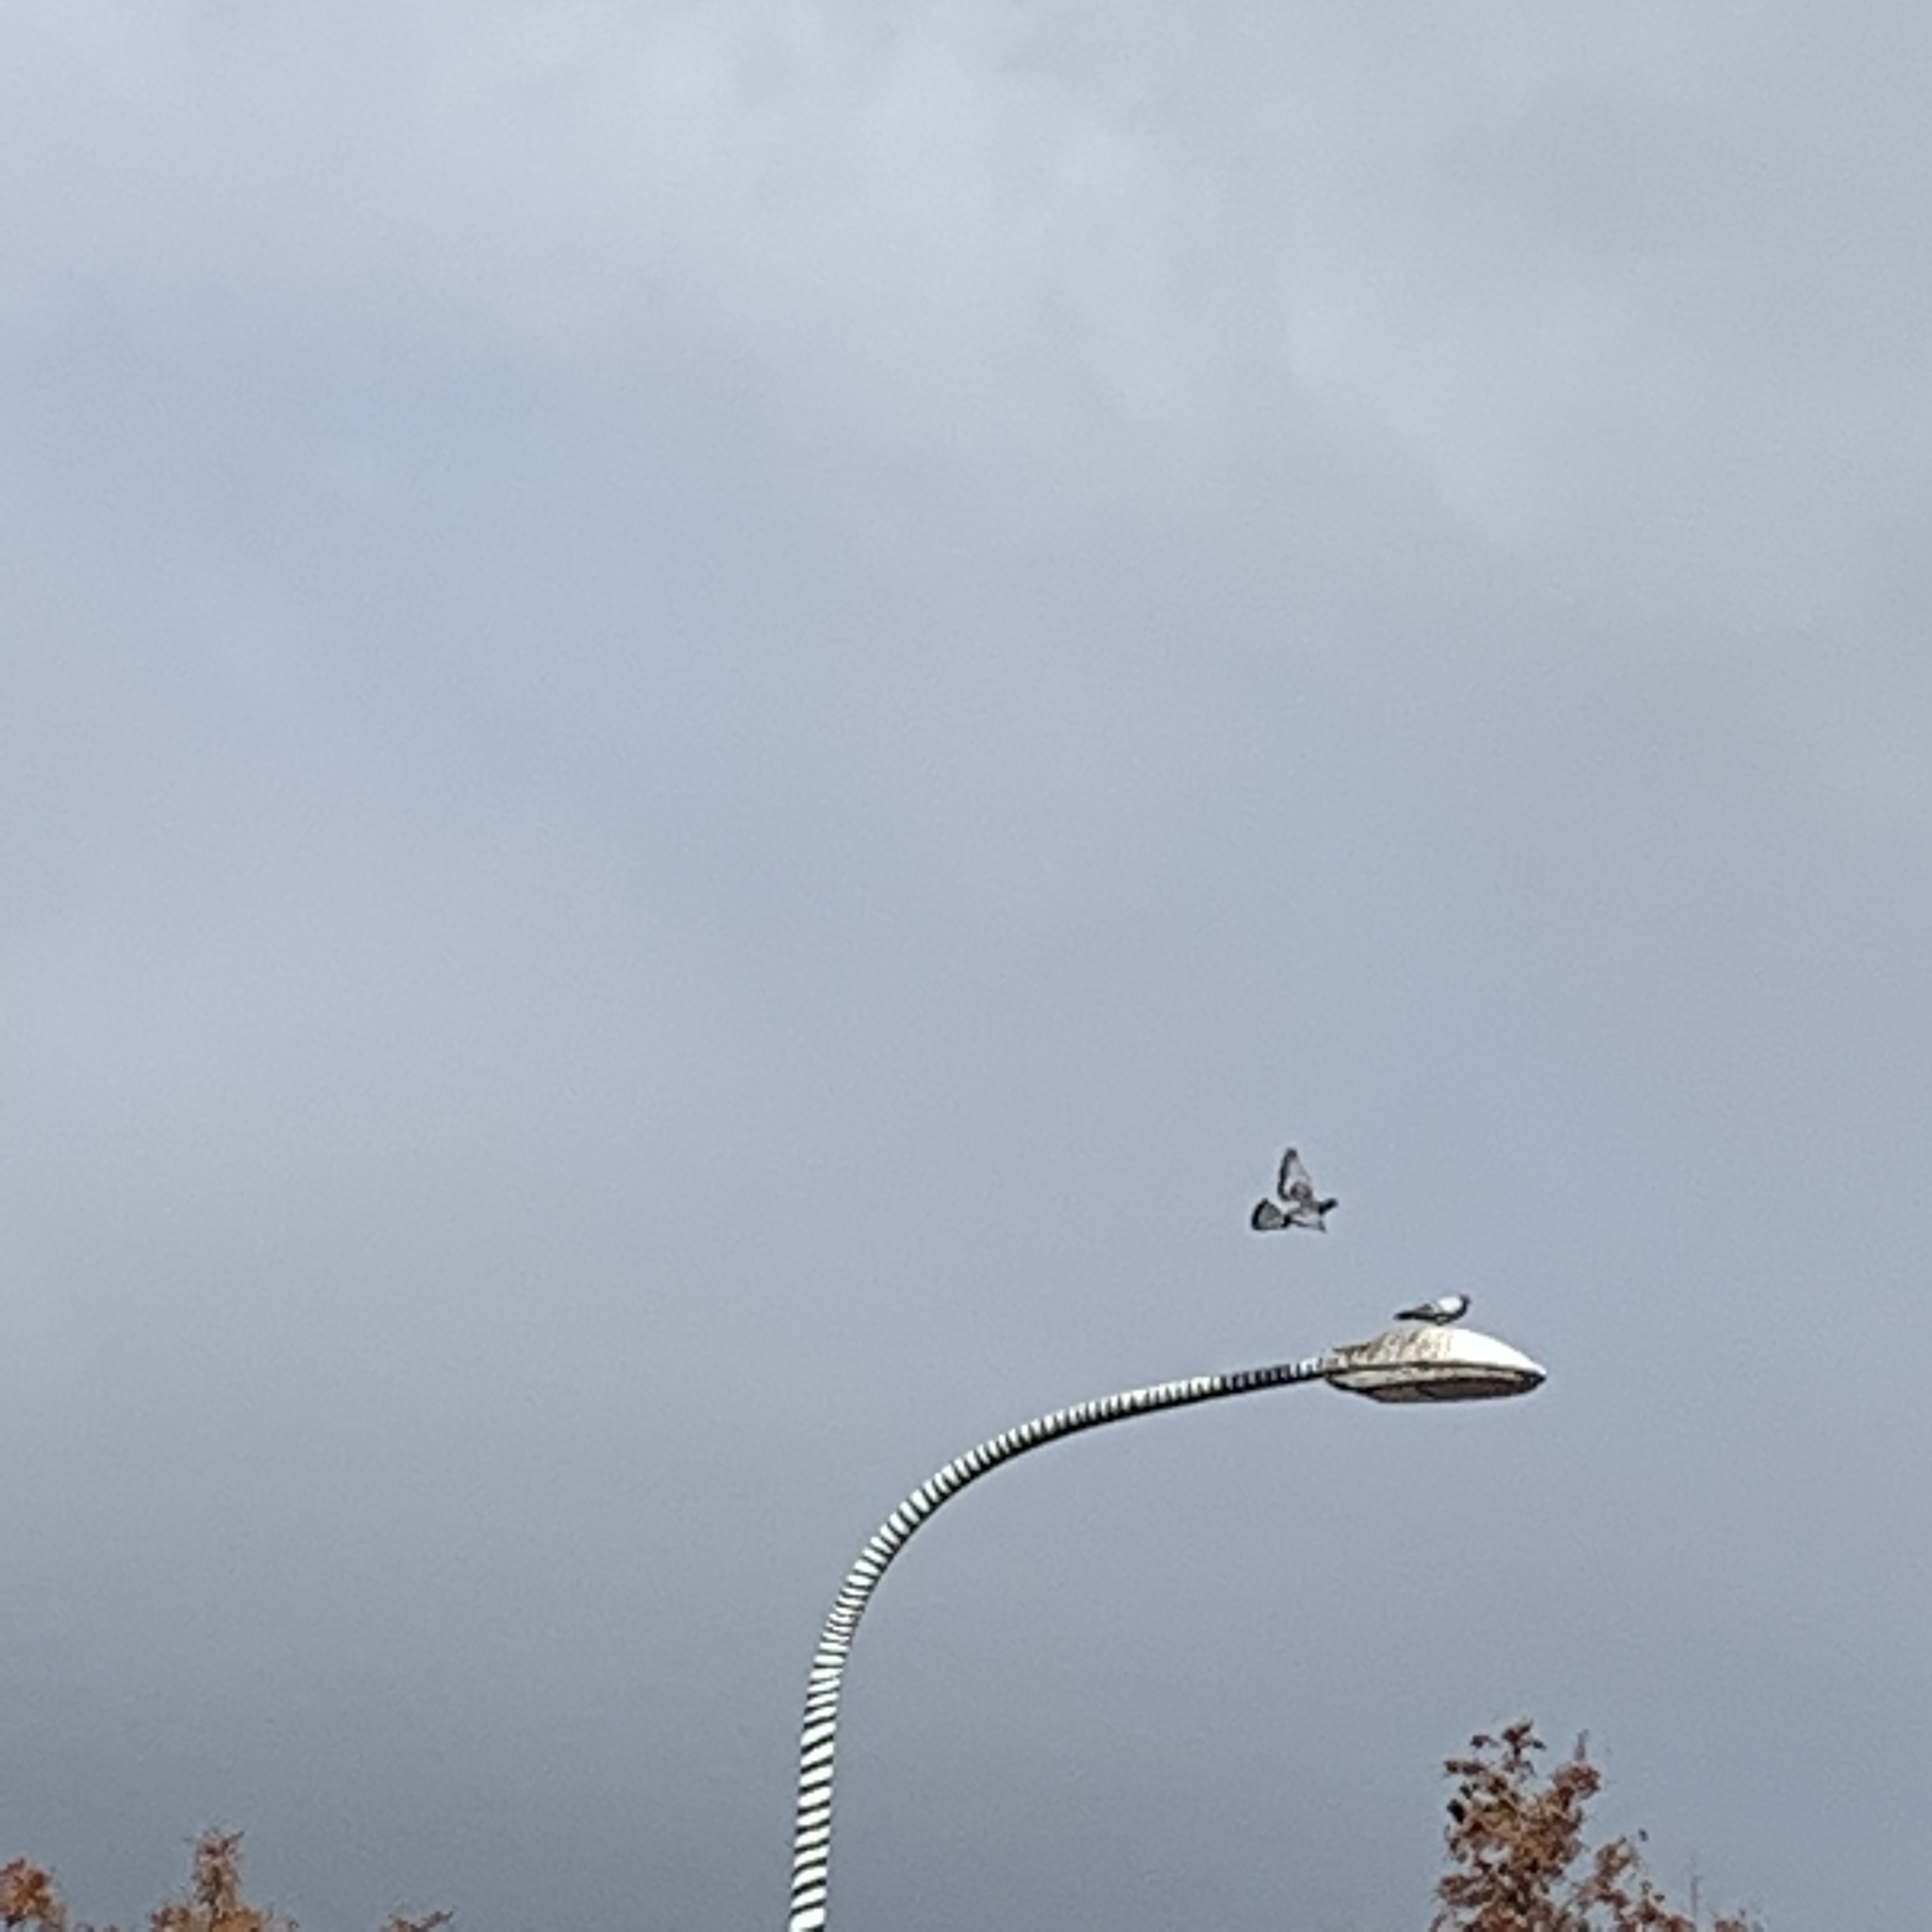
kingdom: Animalia
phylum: Chordata
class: Aves
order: Columbiformes
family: Columbidae
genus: Columba
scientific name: Columba livia
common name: Rock pigeon
